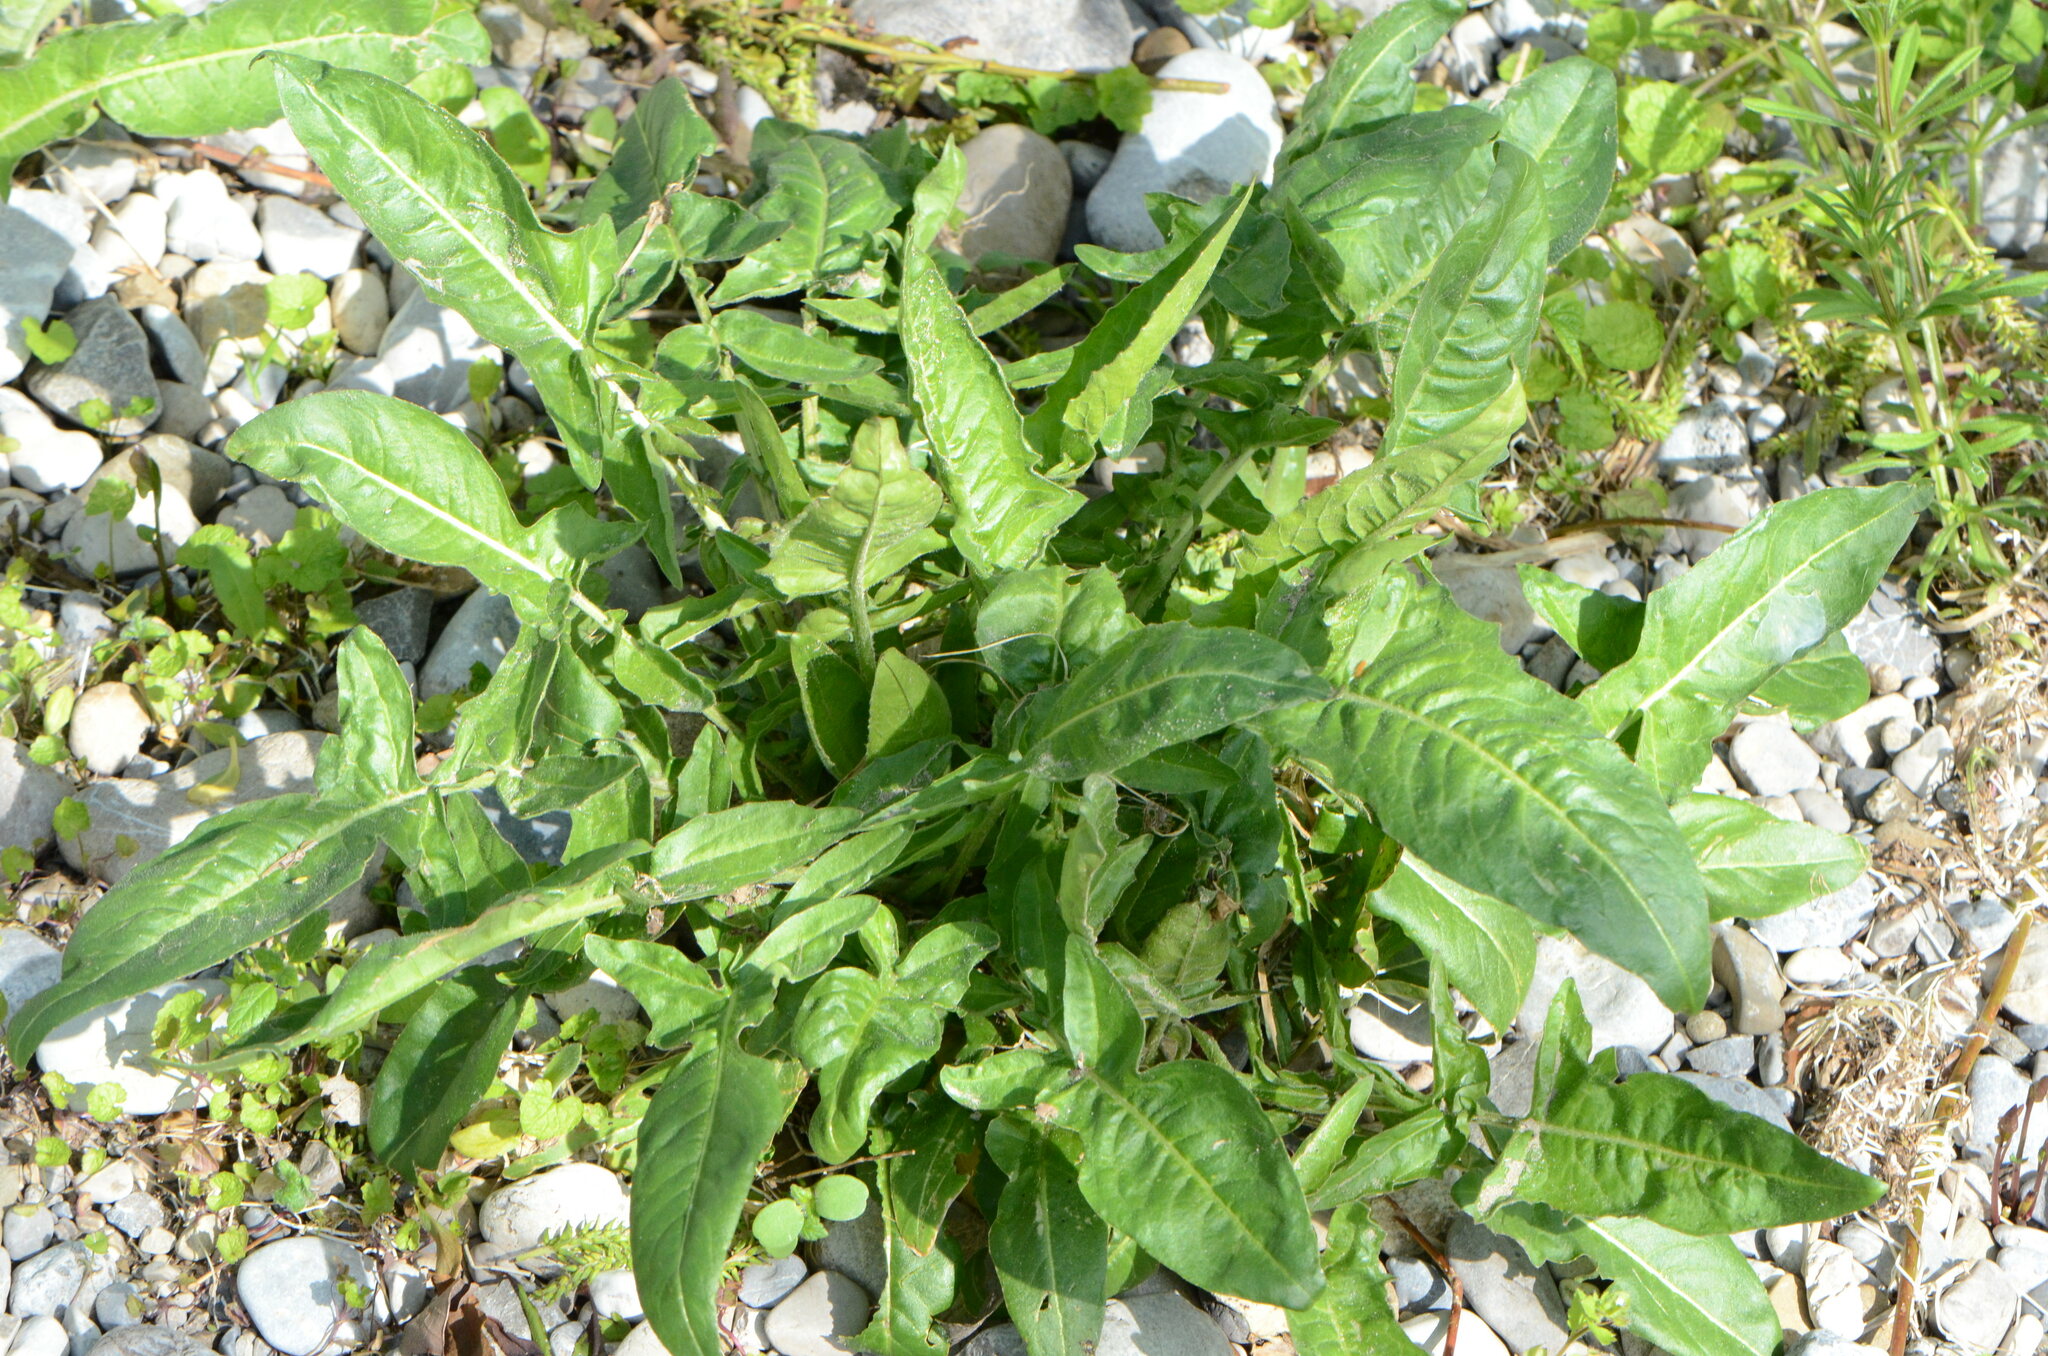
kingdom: Plantae
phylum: Tracheophyta
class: Magnoliopsida
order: Brassicales
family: Brassicaceae
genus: Bunias
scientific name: Bunias orientalis
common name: Warty-cabbage
